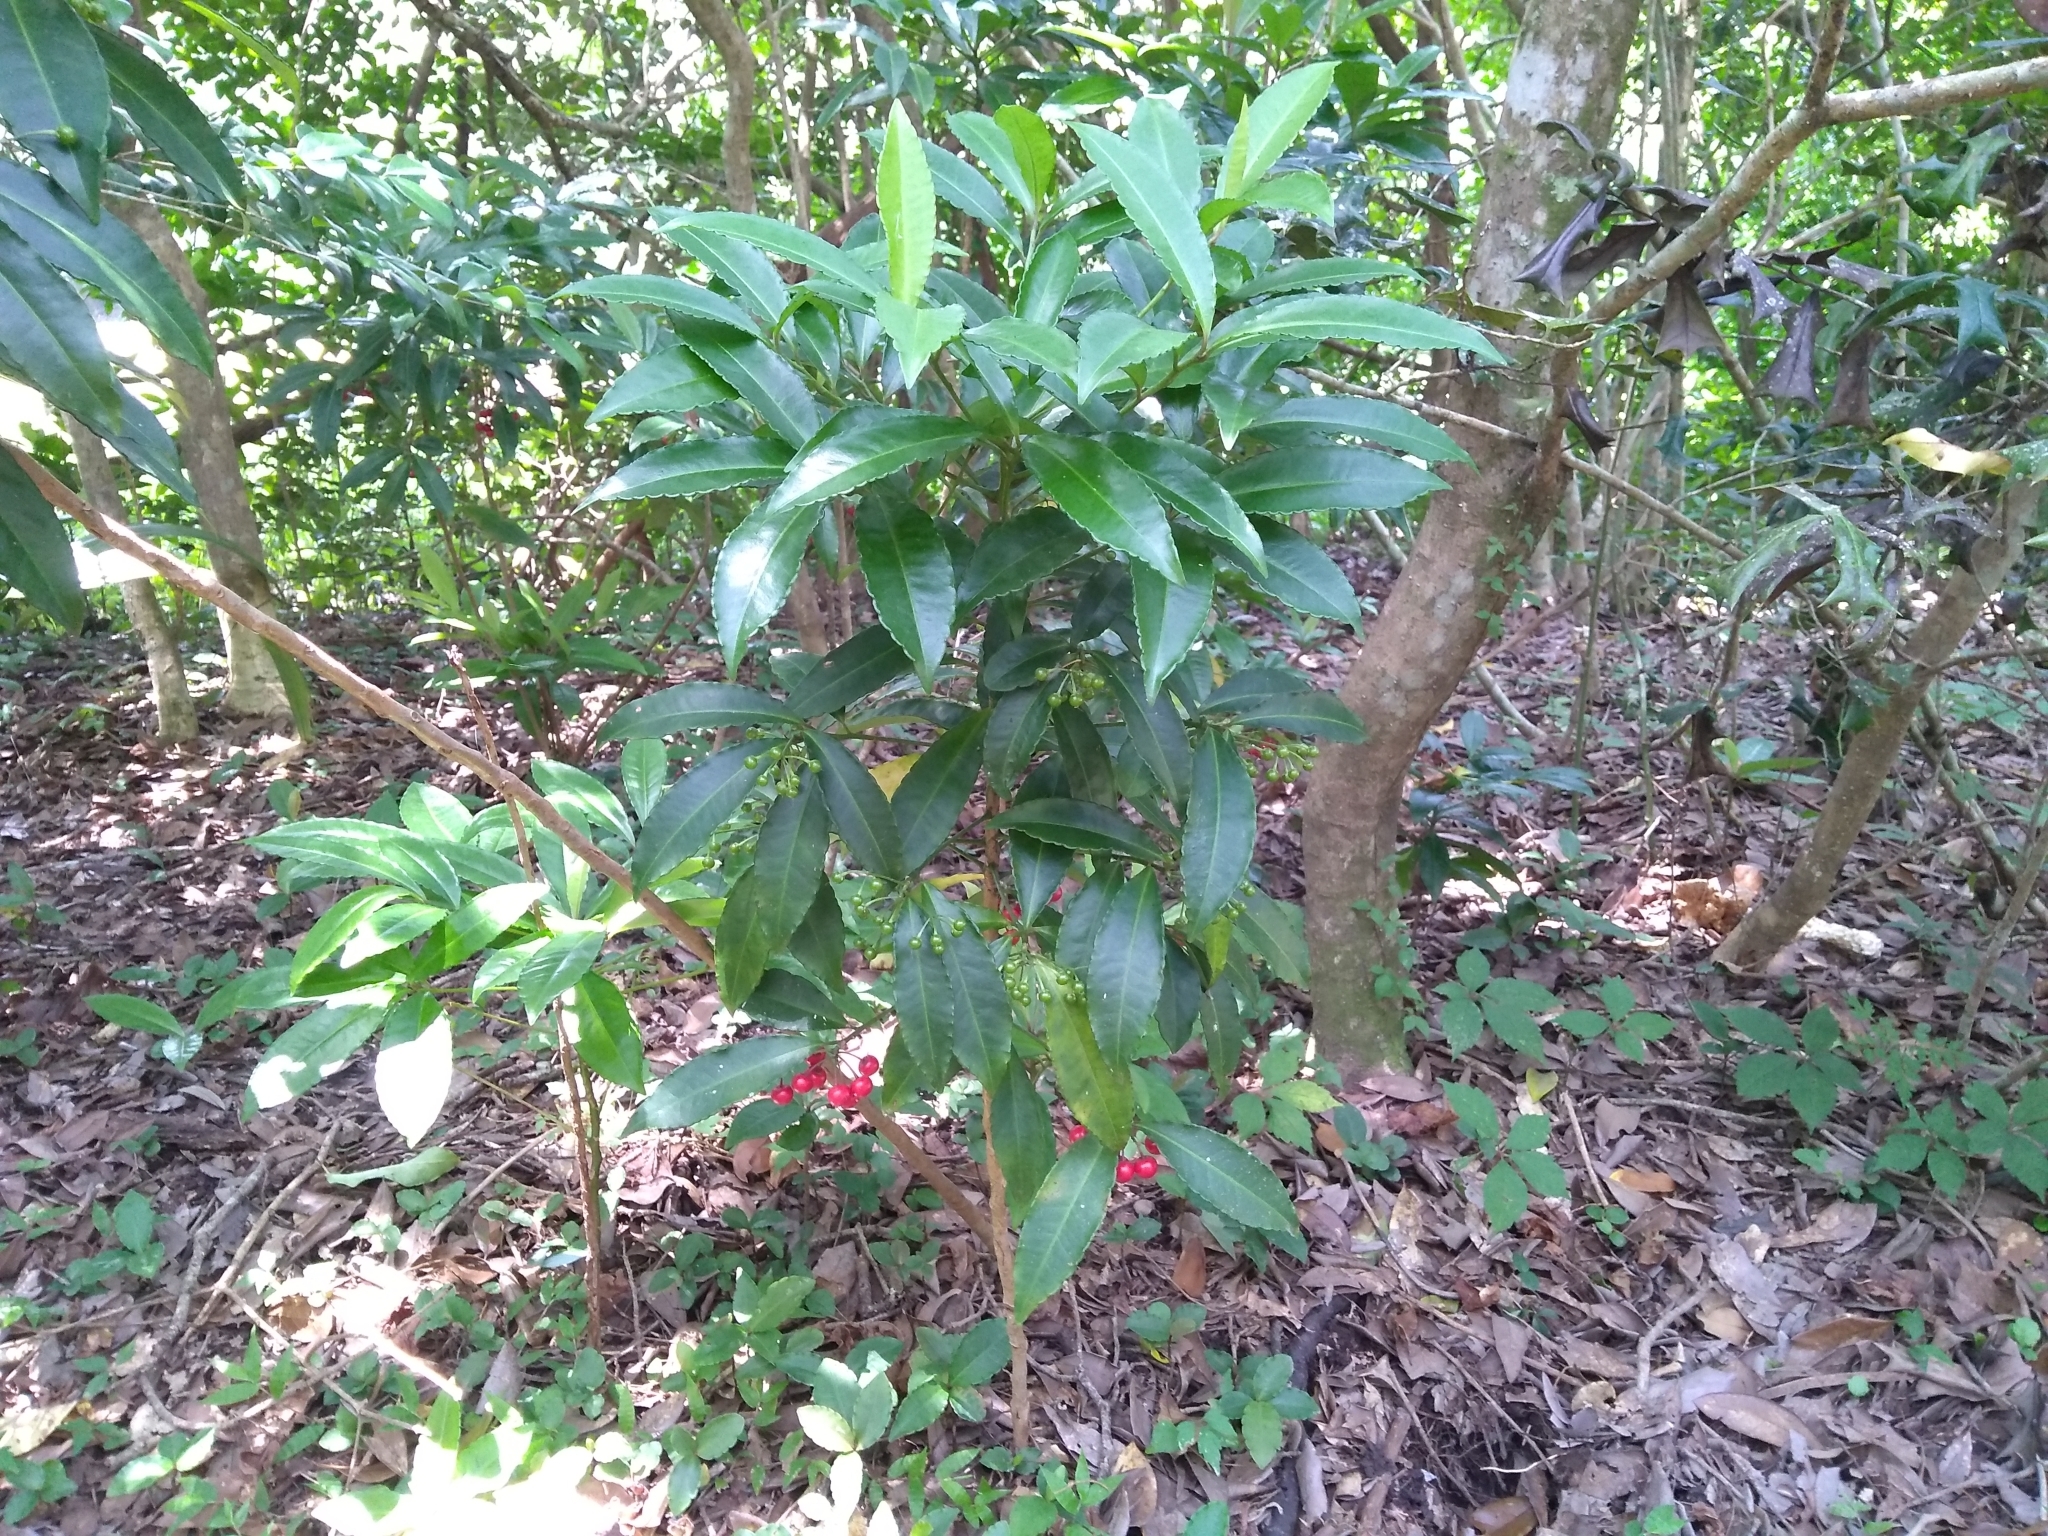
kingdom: Plantae
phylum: Tracheophyta
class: Magnoliopsida
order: Ericales
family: Primulaceae
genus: Ardisia
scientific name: Ardisia crenata
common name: Hen's eyes
